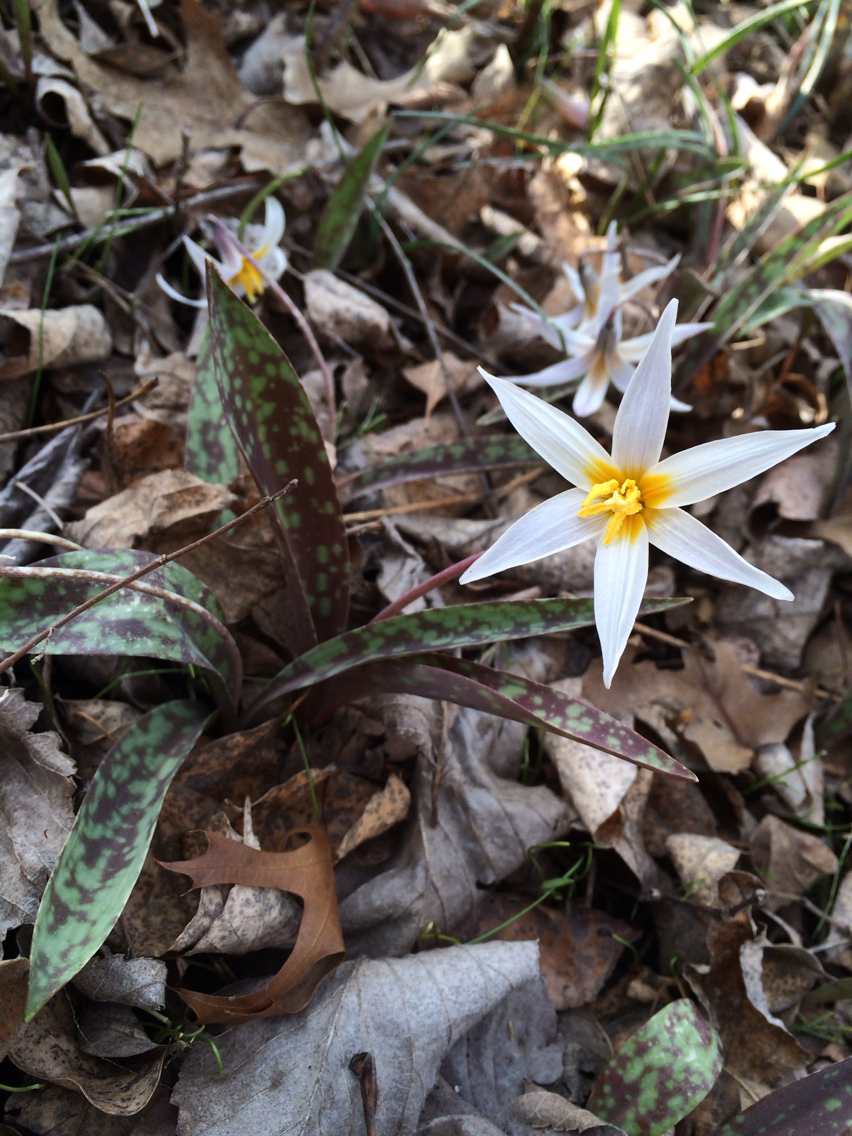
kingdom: Plantae
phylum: Tracheophyta
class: Liliopsida
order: Liliales
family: Liliaceae
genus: Erythronium
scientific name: Erythronium albidum
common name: White trout-lily
